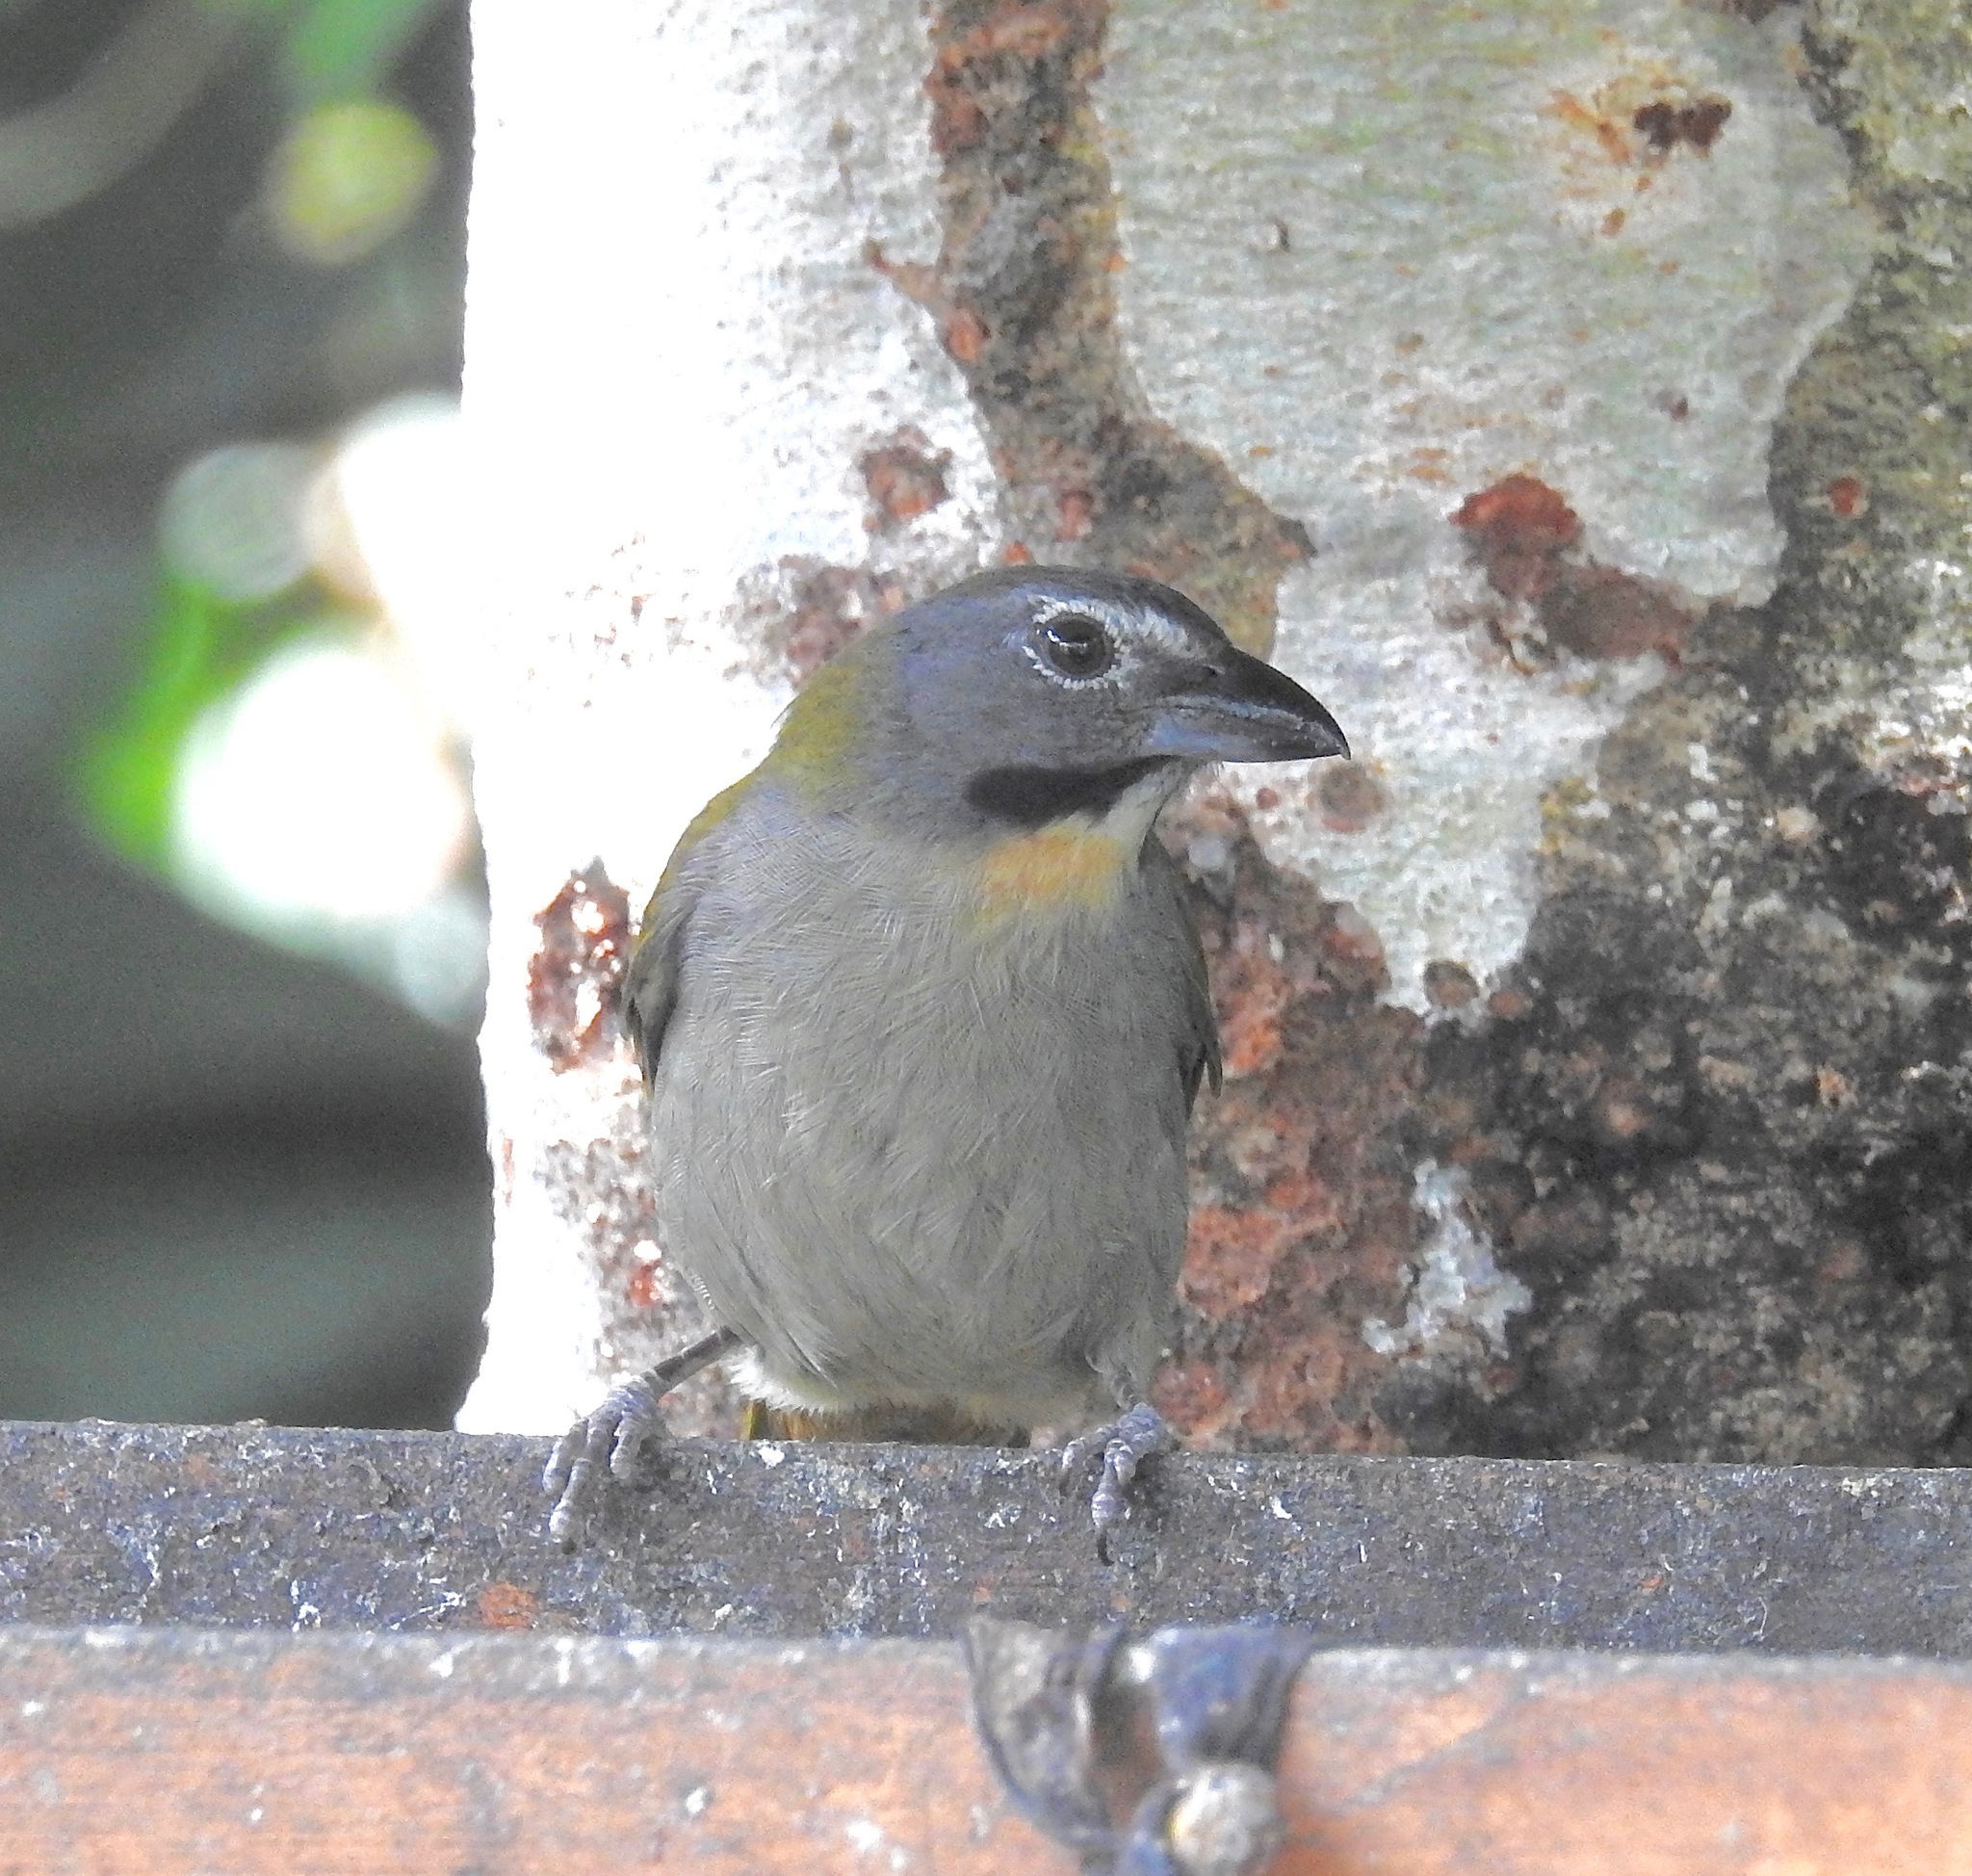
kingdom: Animalia
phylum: Chordata
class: Aves
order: Passeriformes
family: Thraupidae
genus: Saltator
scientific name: Saltator maximus
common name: Buff-throated saltator
